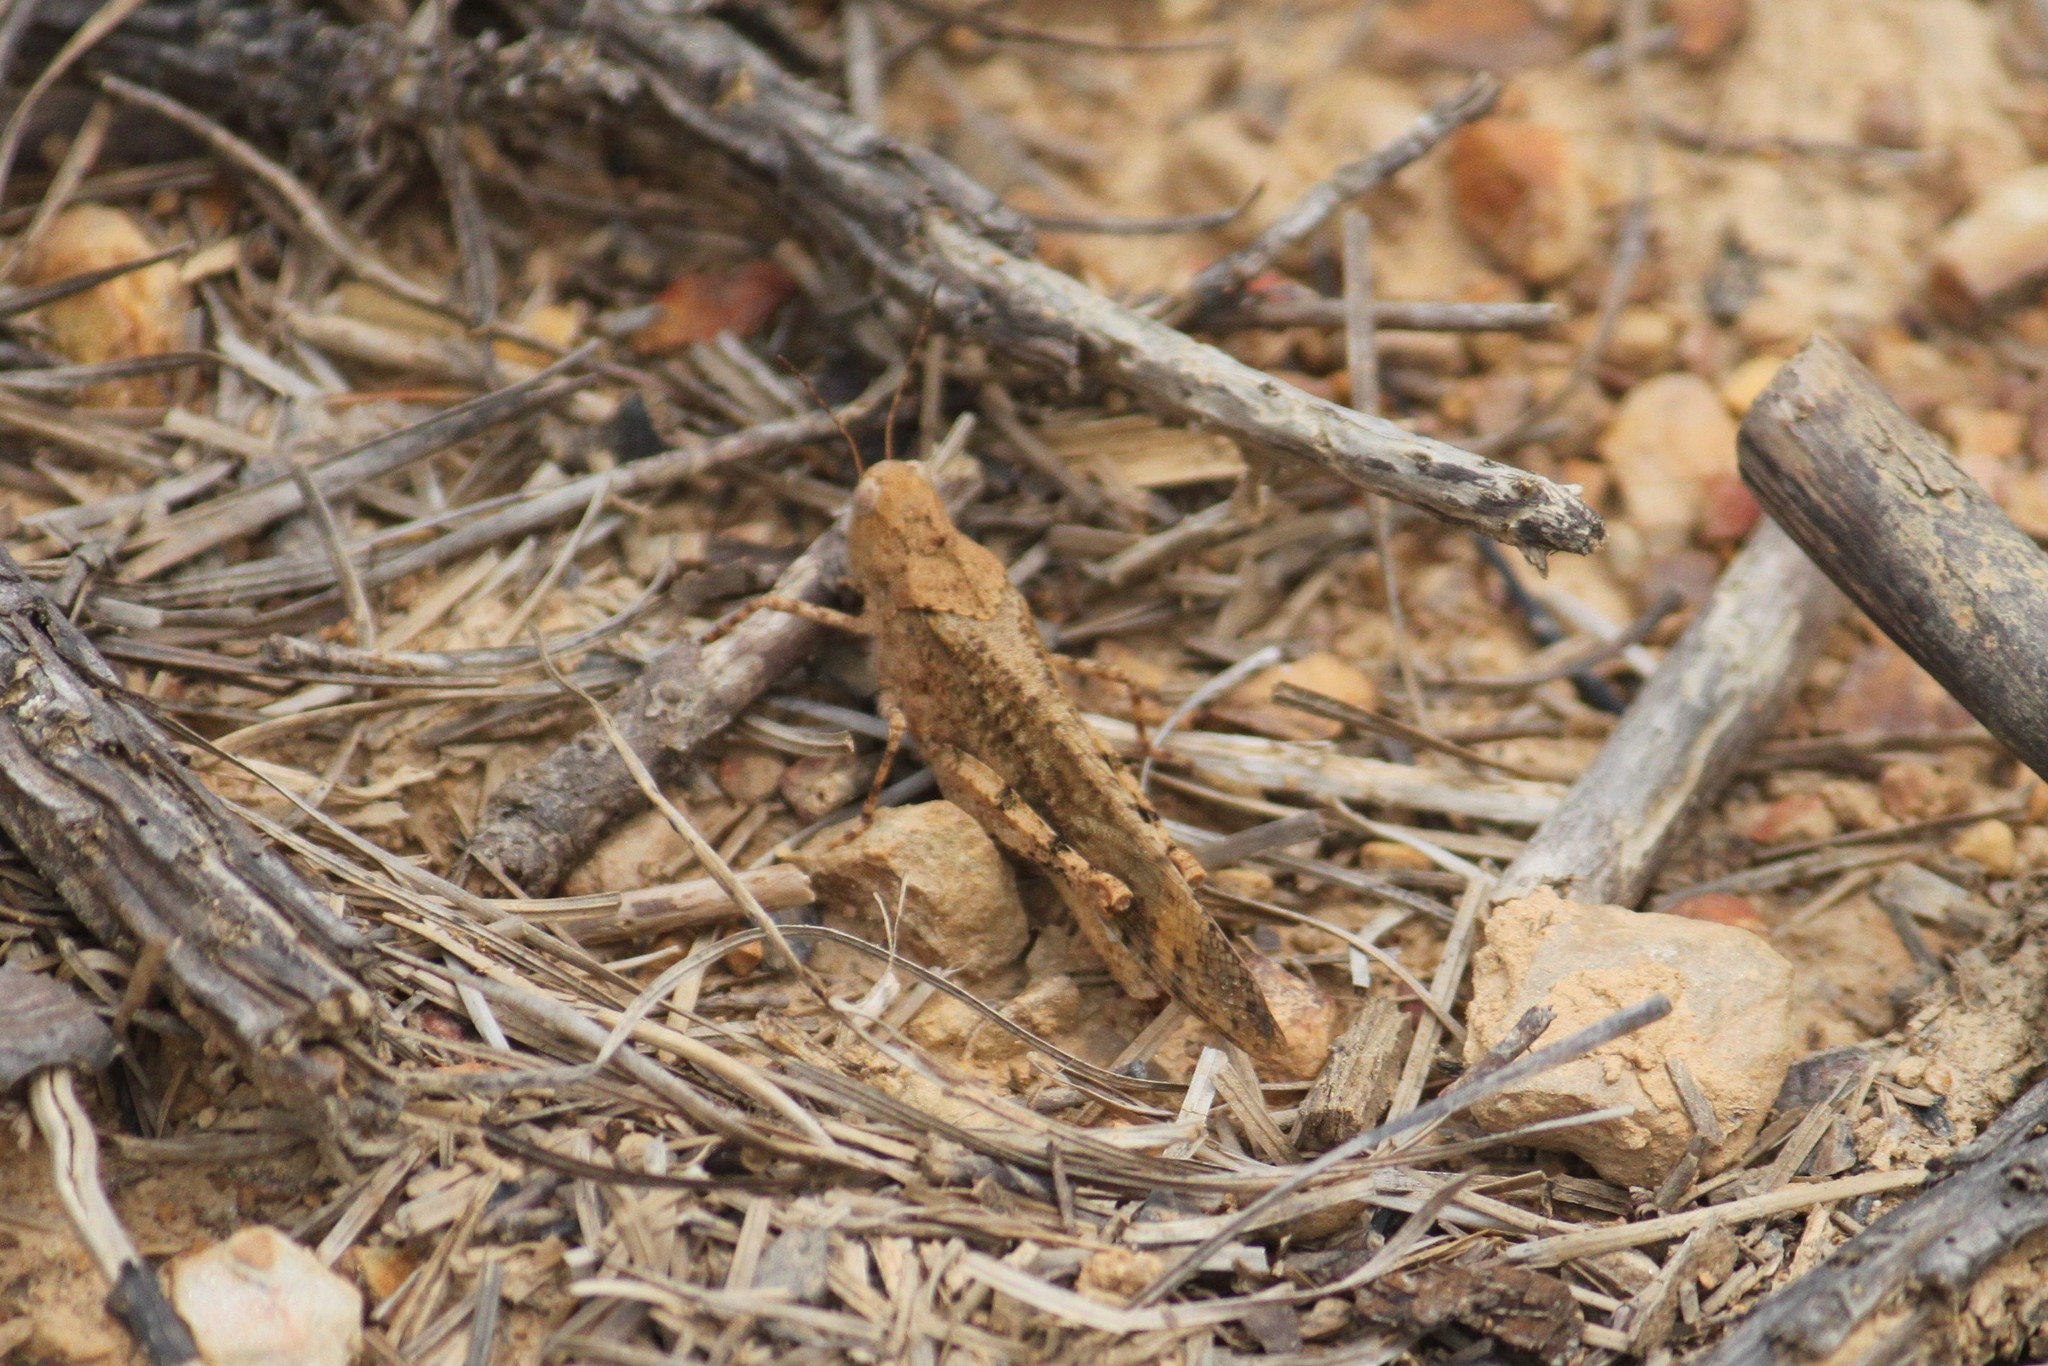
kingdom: Animalia
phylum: Arthropoda
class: Insecta
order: Orthoptera
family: Acrididae
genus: Dissosteira
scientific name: Dissosteira carolina
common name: Carolina grasshopper
